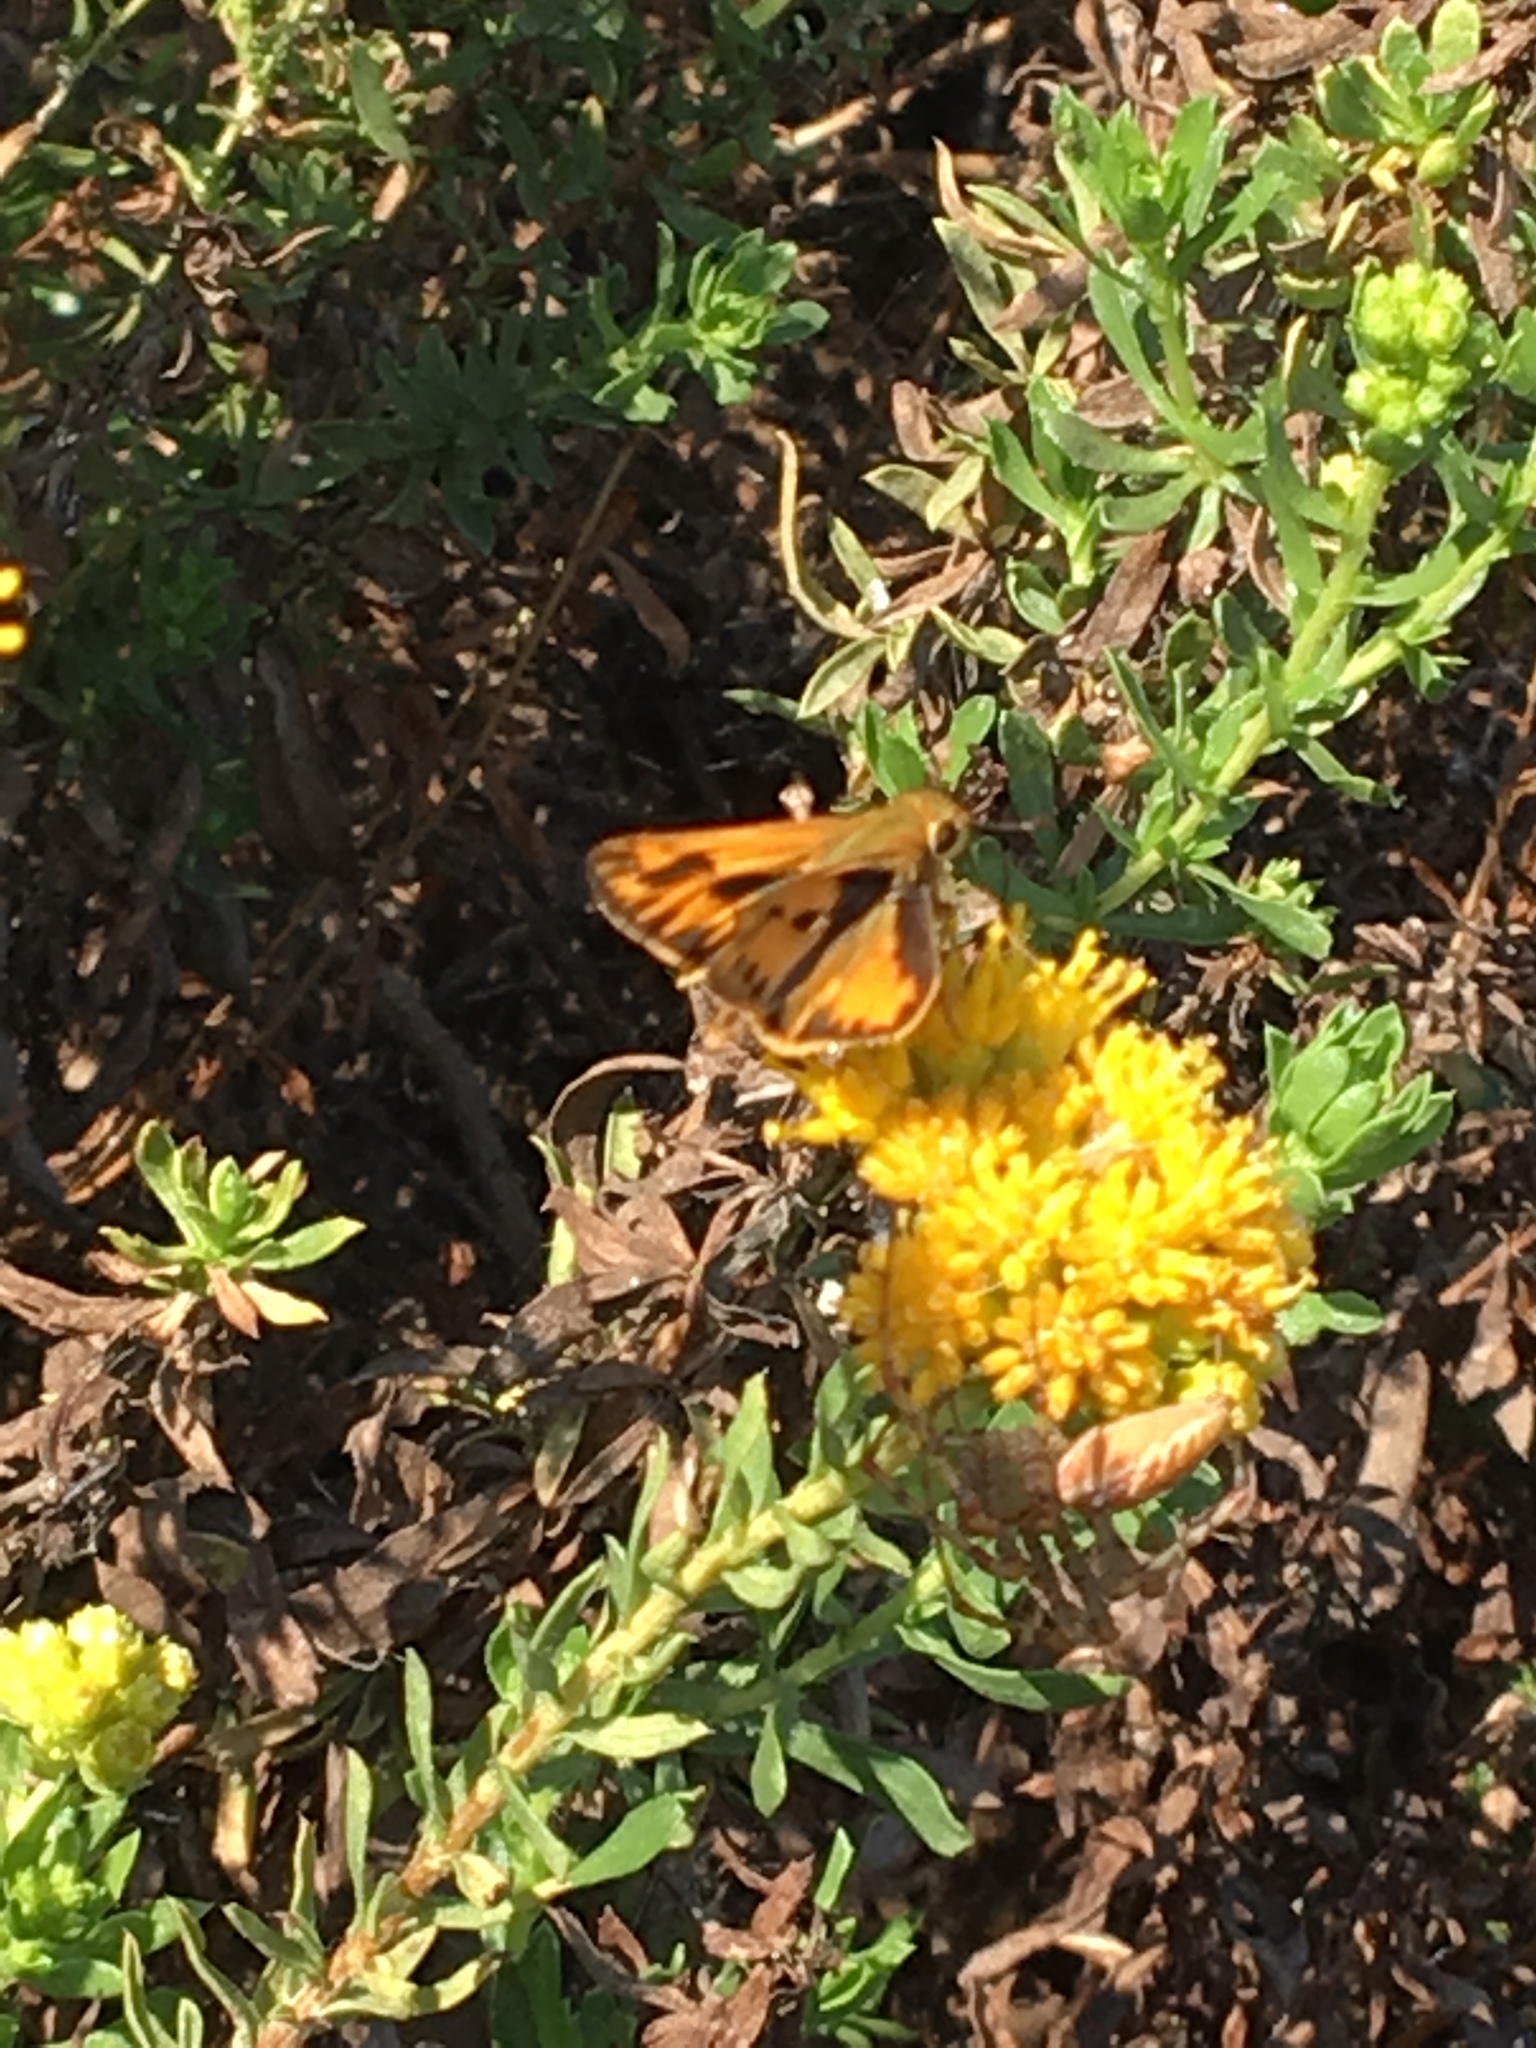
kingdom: Animalia
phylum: Arthropoda
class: Insecta
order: Lepidoptera
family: Hesperiidae
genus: Hylephila
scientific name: Hylephila phyleus
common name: Fiery skipper
